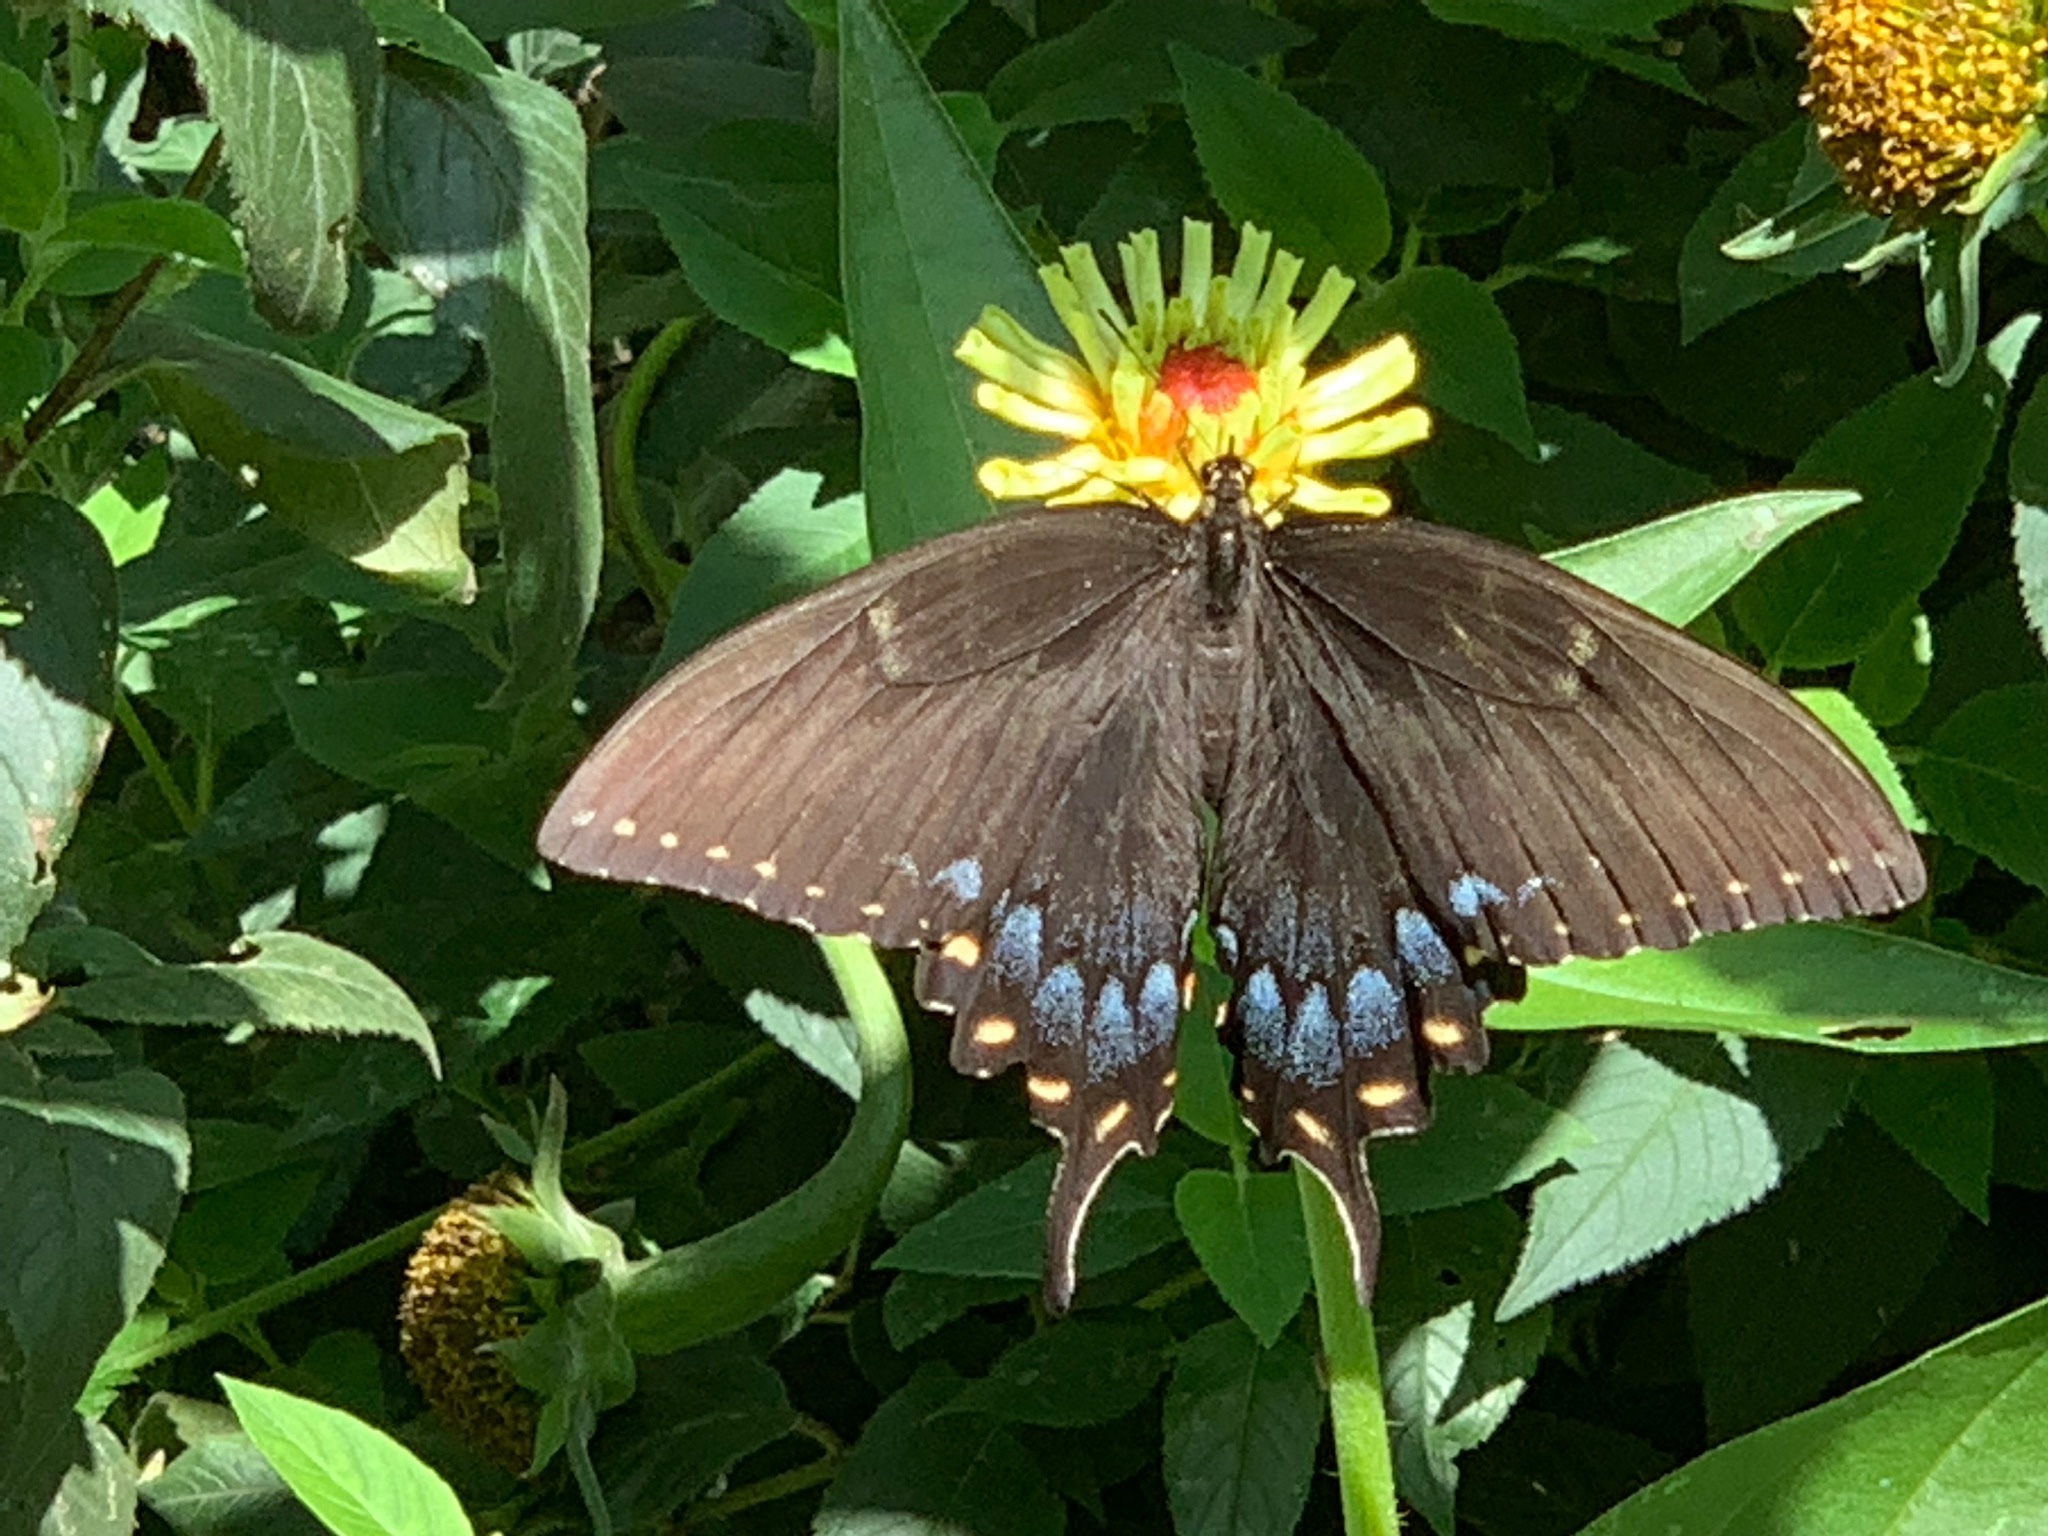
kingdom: Animalia
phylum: Arthropoda
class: Insecta
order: Lepidoptera
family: Papilionidae
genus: Papilio
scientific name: Papilio glaucus
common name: Tiger swallowtail
